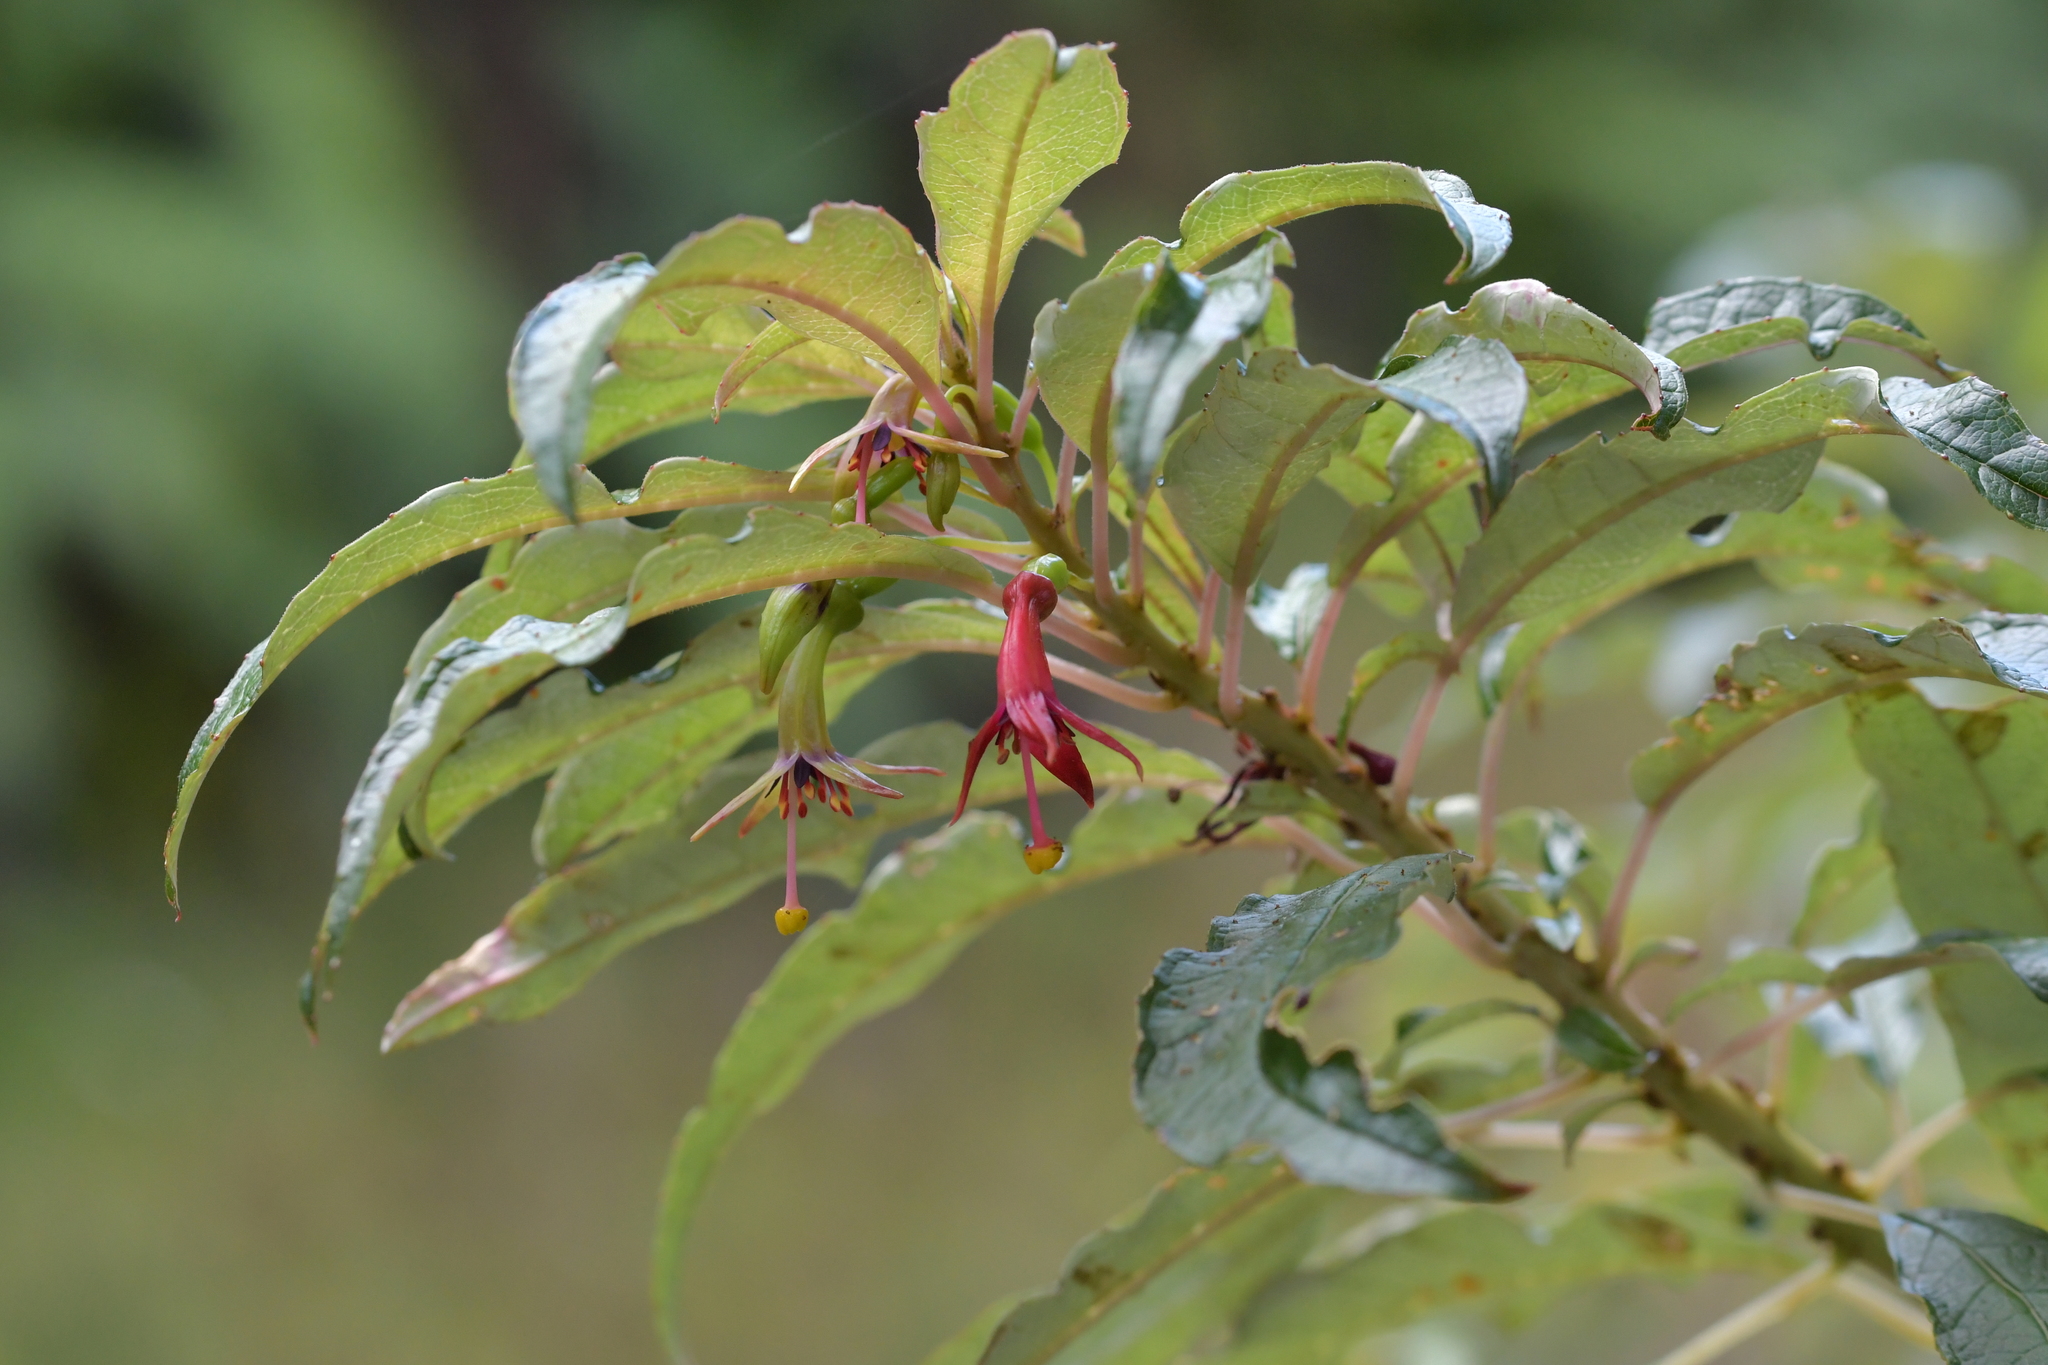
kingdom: Plantae
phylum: Tracheophyta
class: Magnoliopsida
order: Myrtales
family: Onagraceae
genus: Fuchsia
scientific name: Fuchsia excorticata
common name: Tree fuchsia
